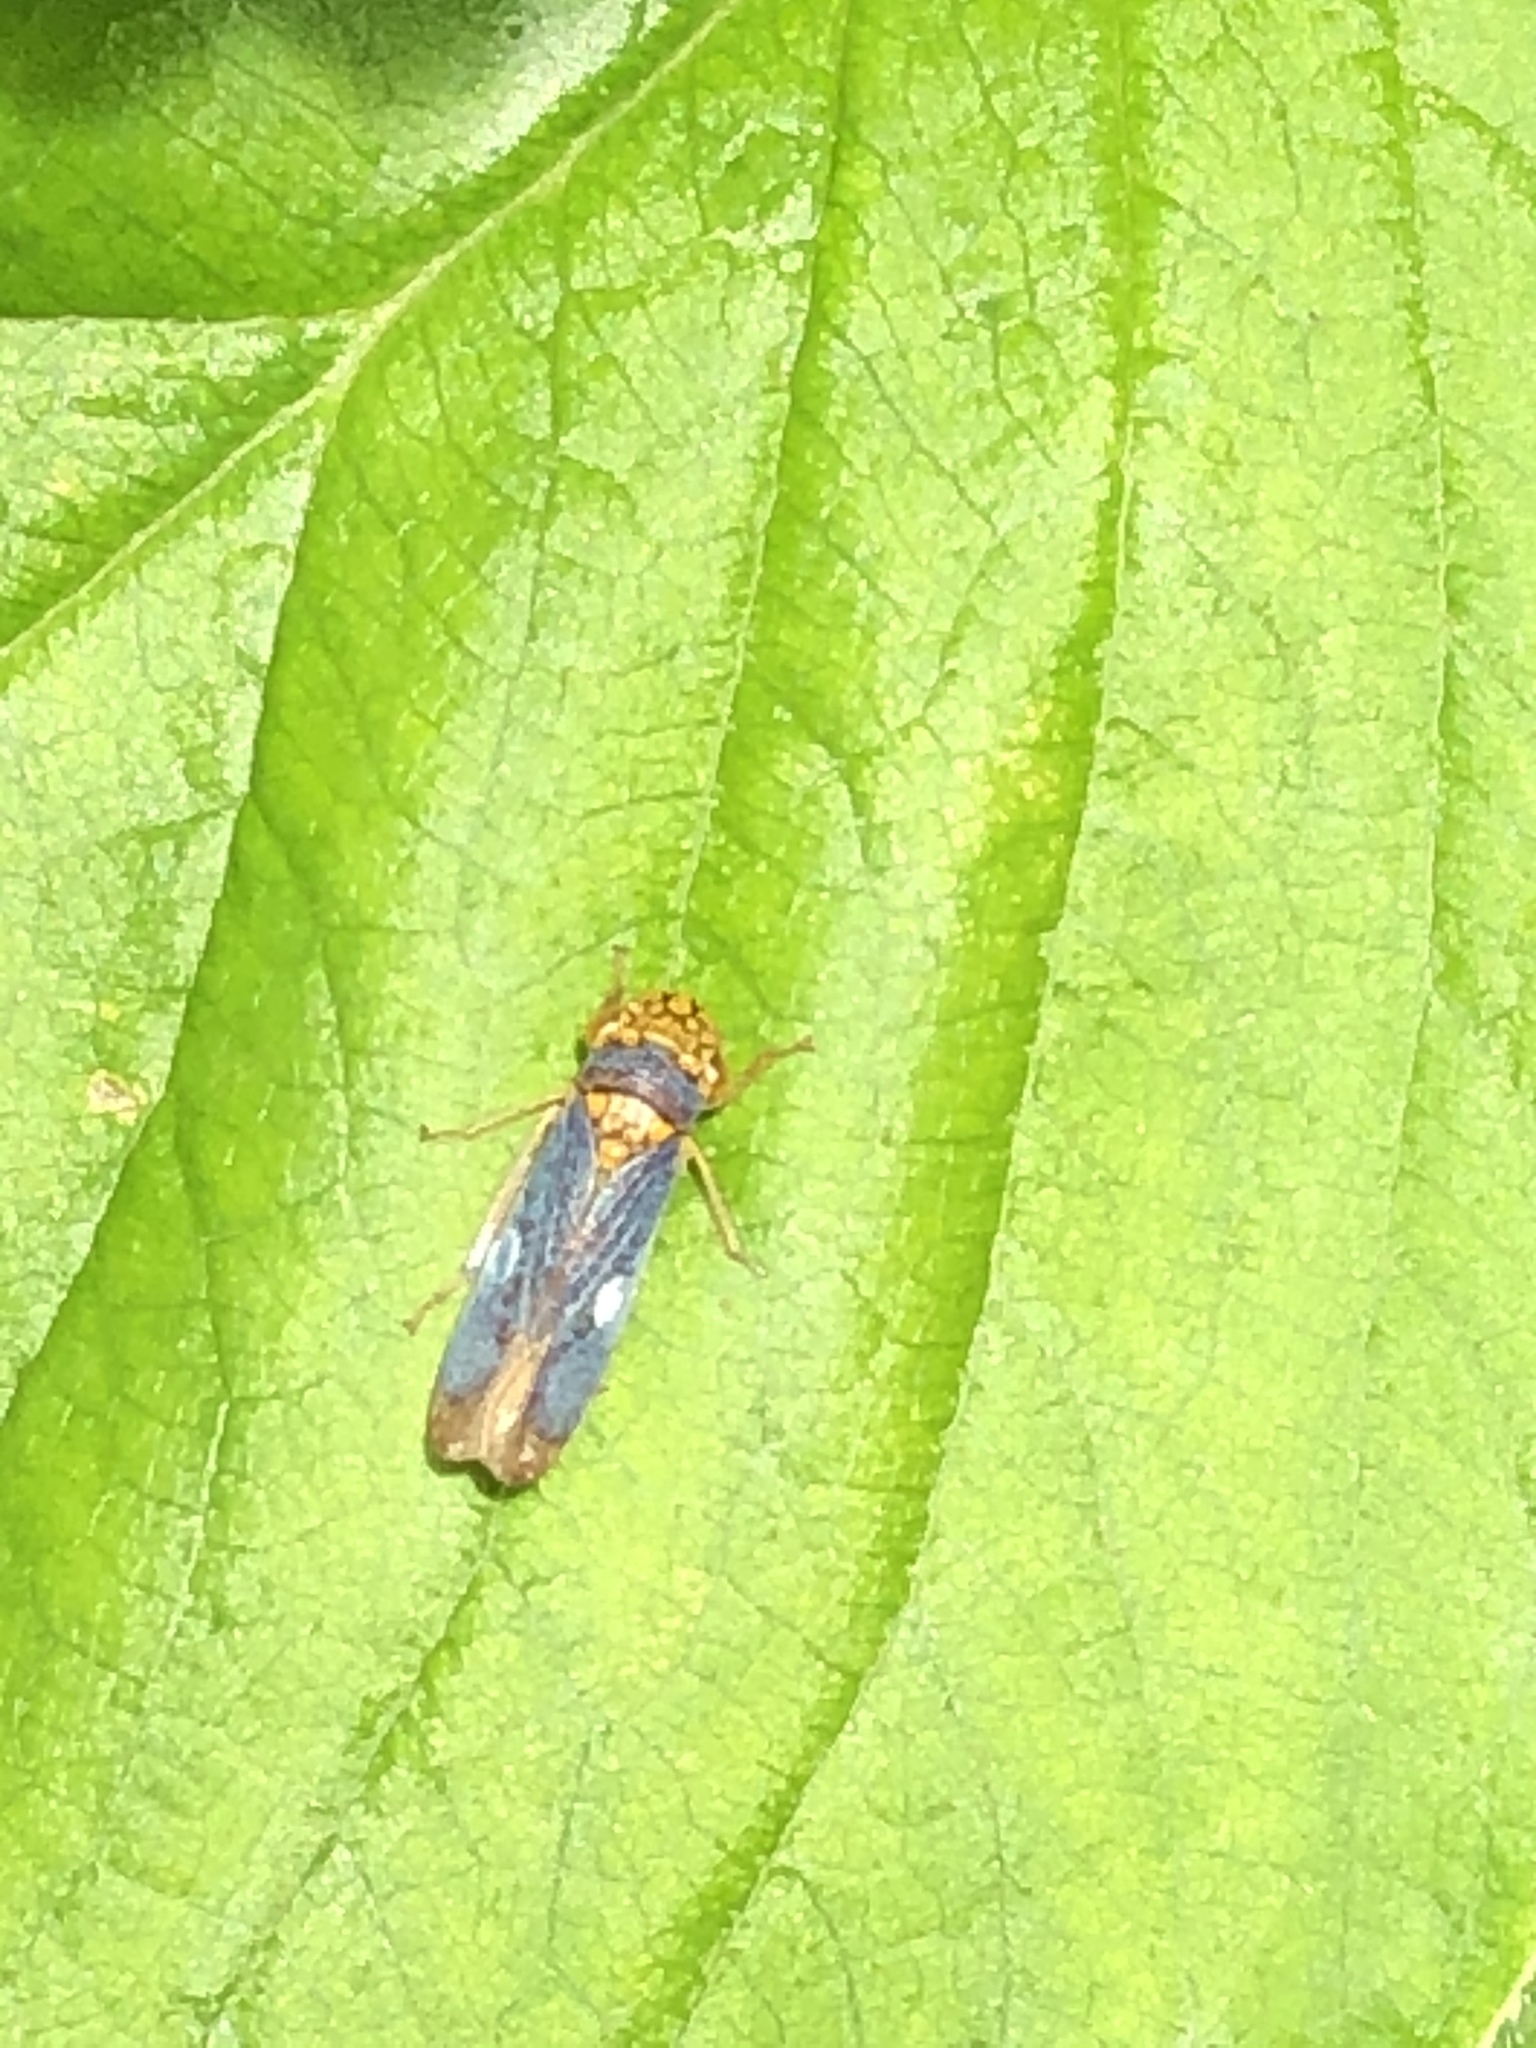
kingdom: Animalia
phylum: Arthropoda
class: Insecta
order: Hemiptera
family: Cicadellidae
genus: Oncometopia
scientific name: Oncometopia orbona
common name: Broad-headed sharpshooter
